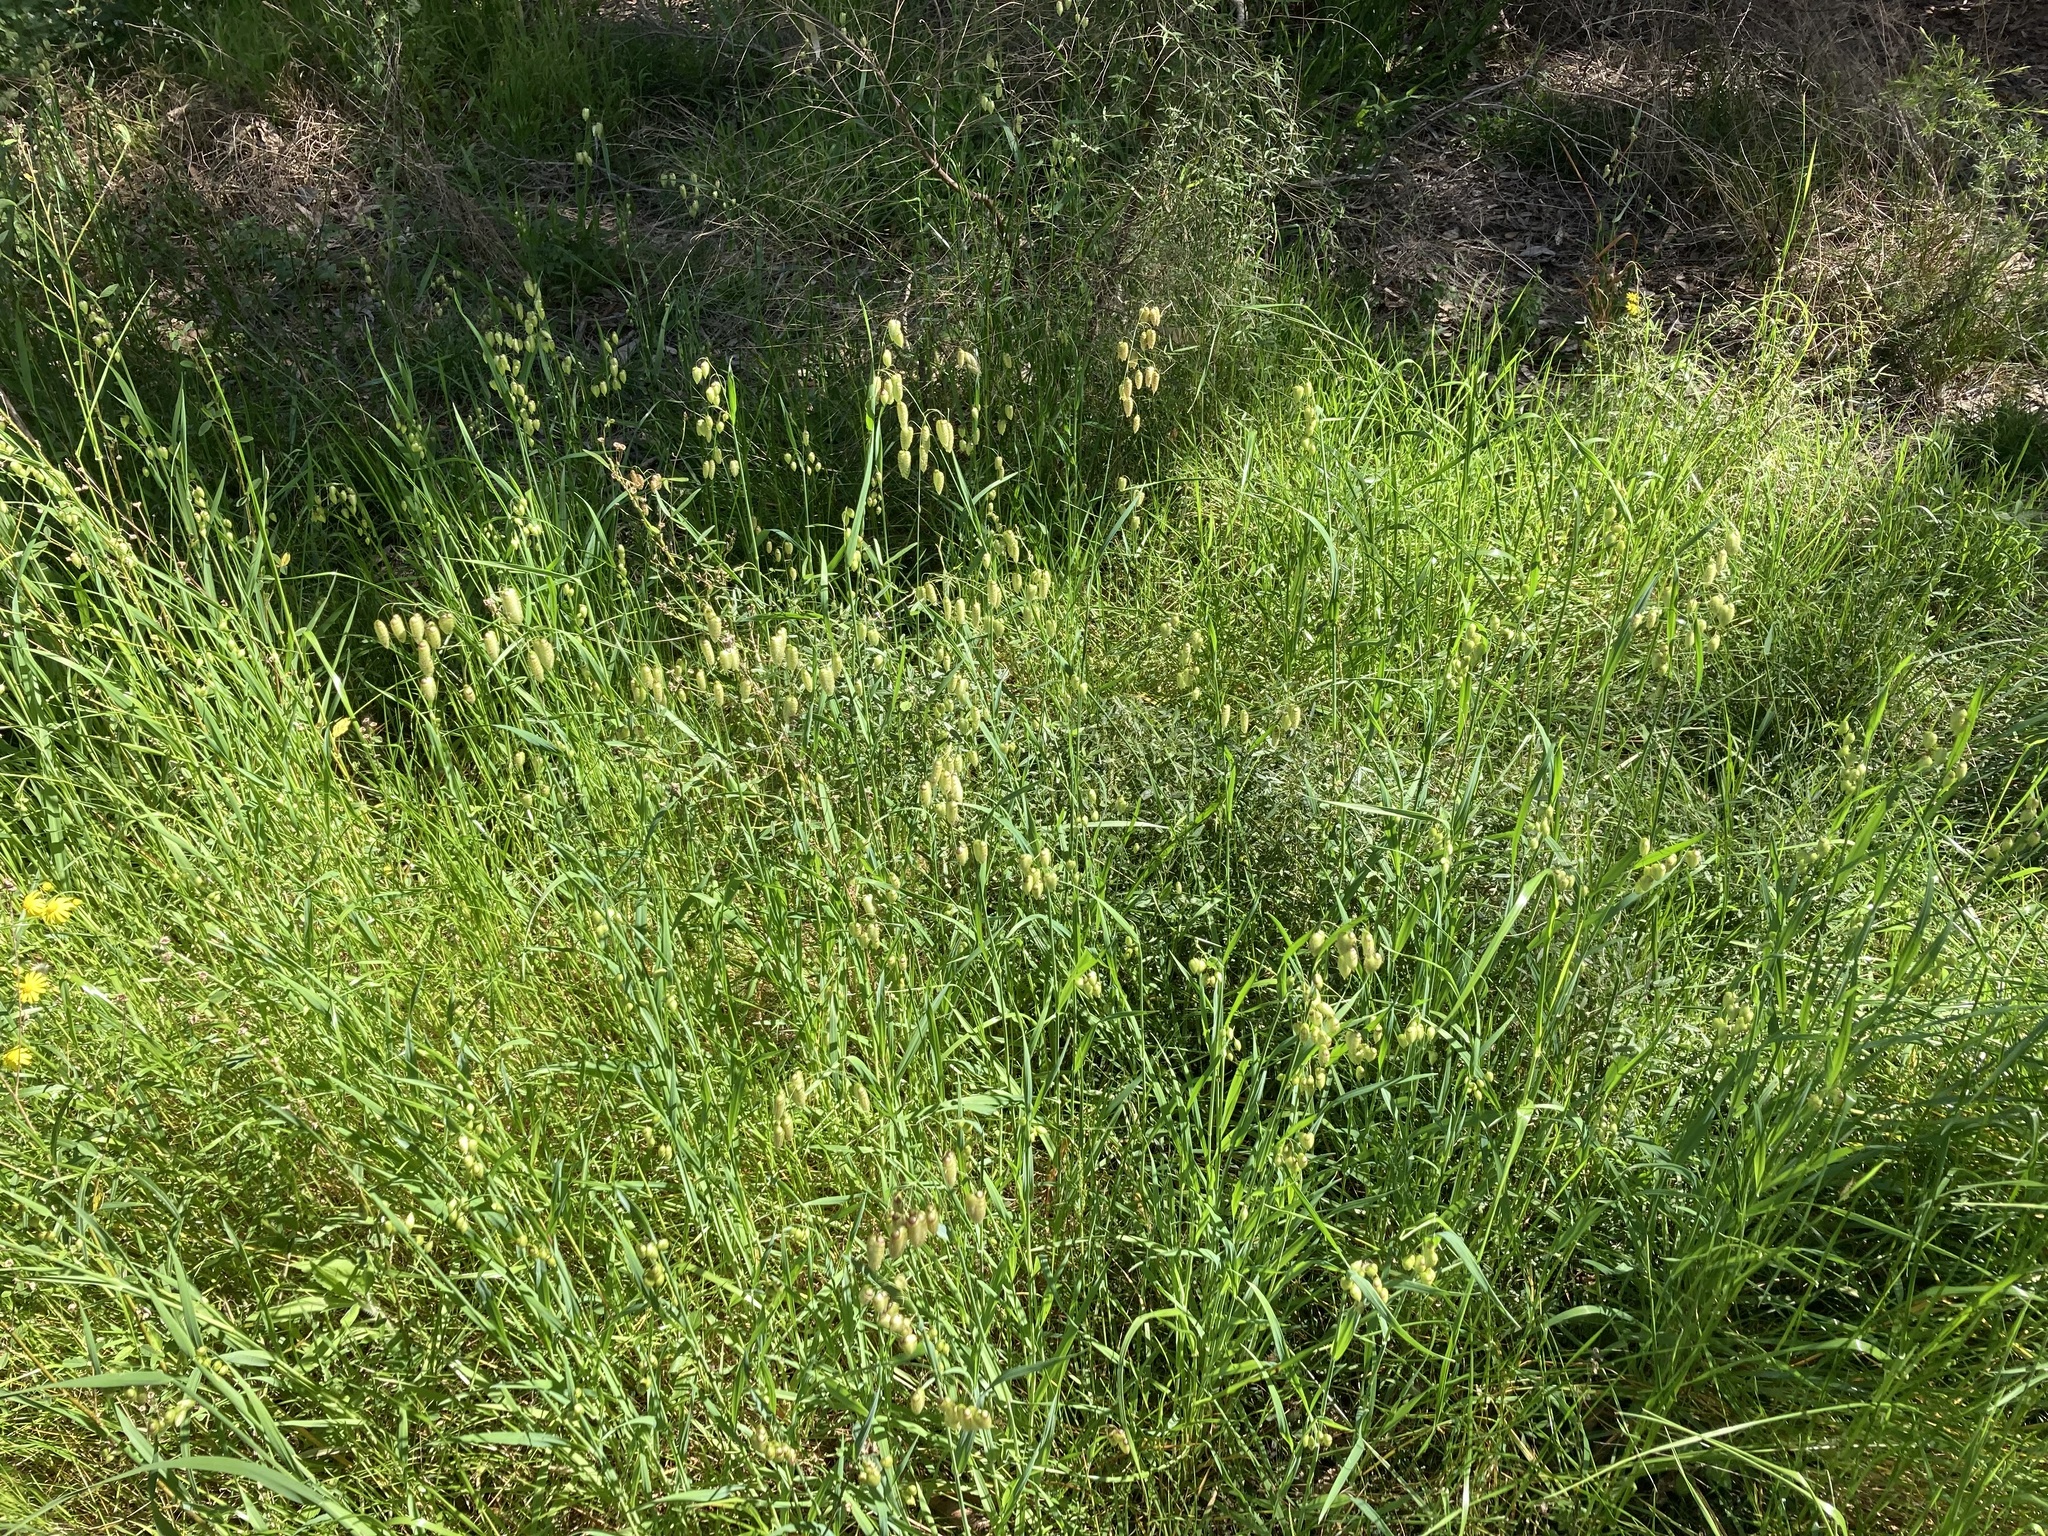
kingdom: Plantae
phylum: Tracheophyta
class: Liliopsida
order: Poales
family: Poaceae
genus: Briza
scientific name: Briza maxima
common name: Big quakinggrass
